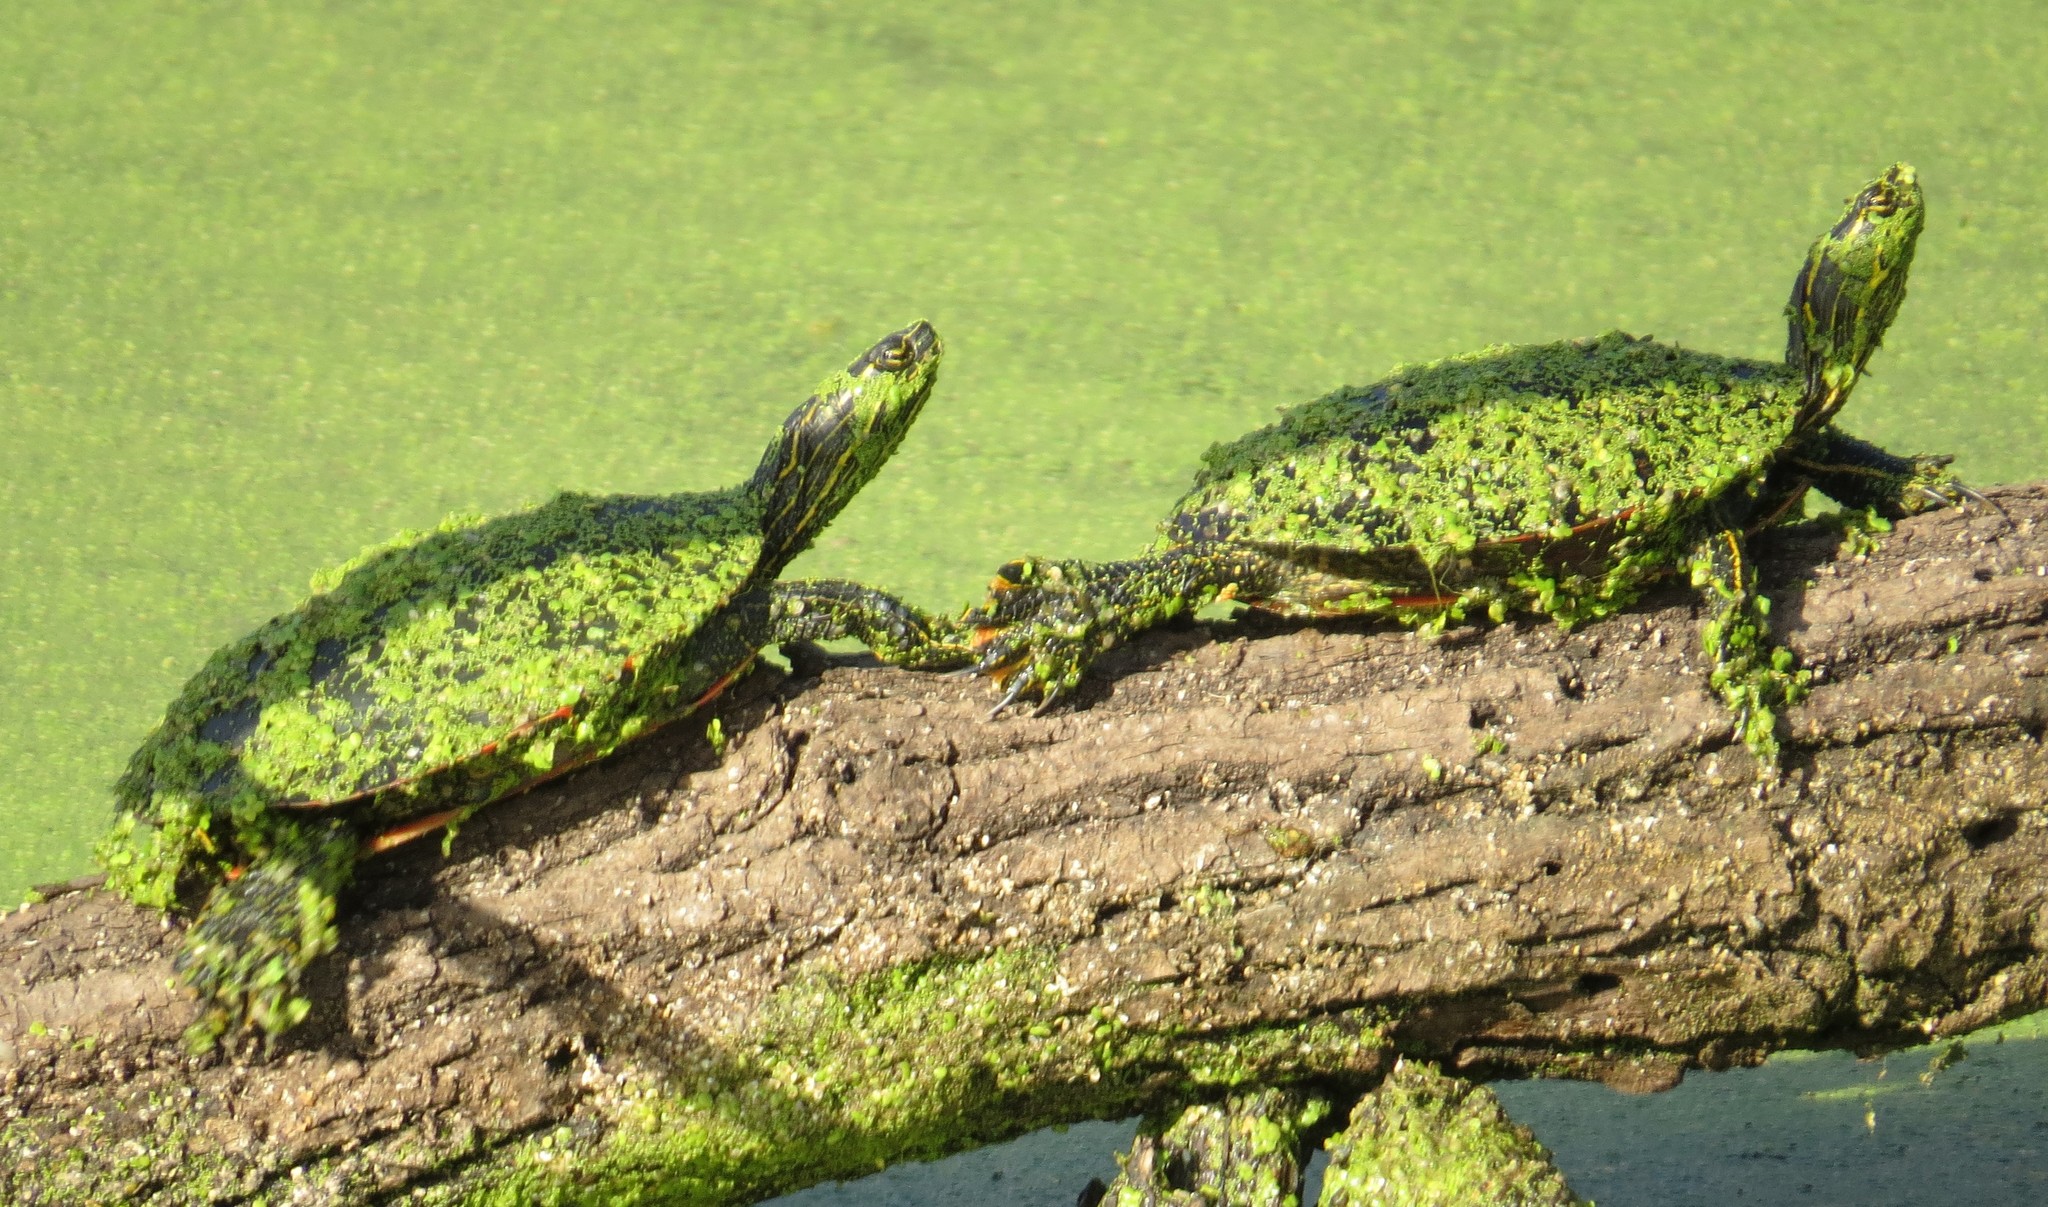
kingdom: Animalia
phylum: Chordata
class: Testudines
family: Emydidae
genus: Chrysemys
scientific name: Chrysemys picta
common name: Painted turtle
